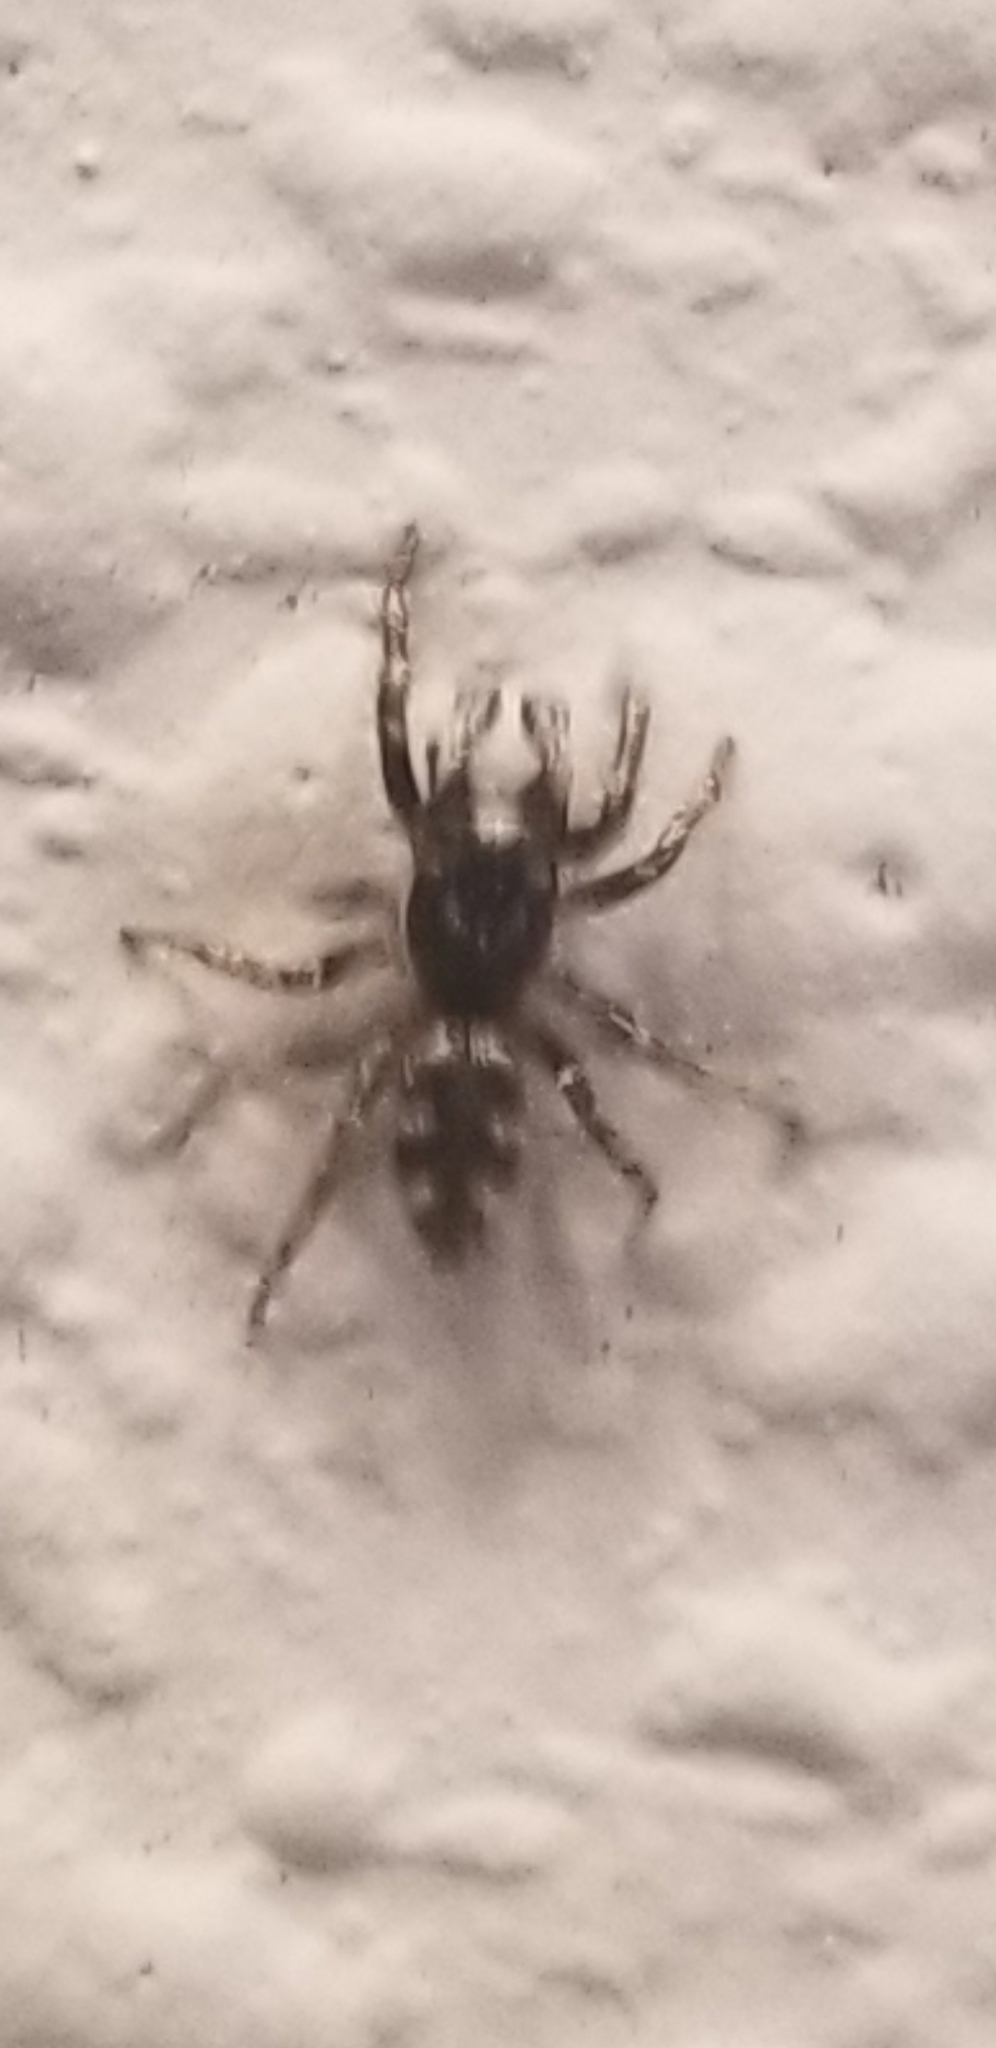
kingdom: Animalia
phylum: Arthropoda
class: Arachnida
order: Araneae
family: Salticidae
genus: Salticus
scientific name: Salticus scenicus
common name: Zebra jumper
